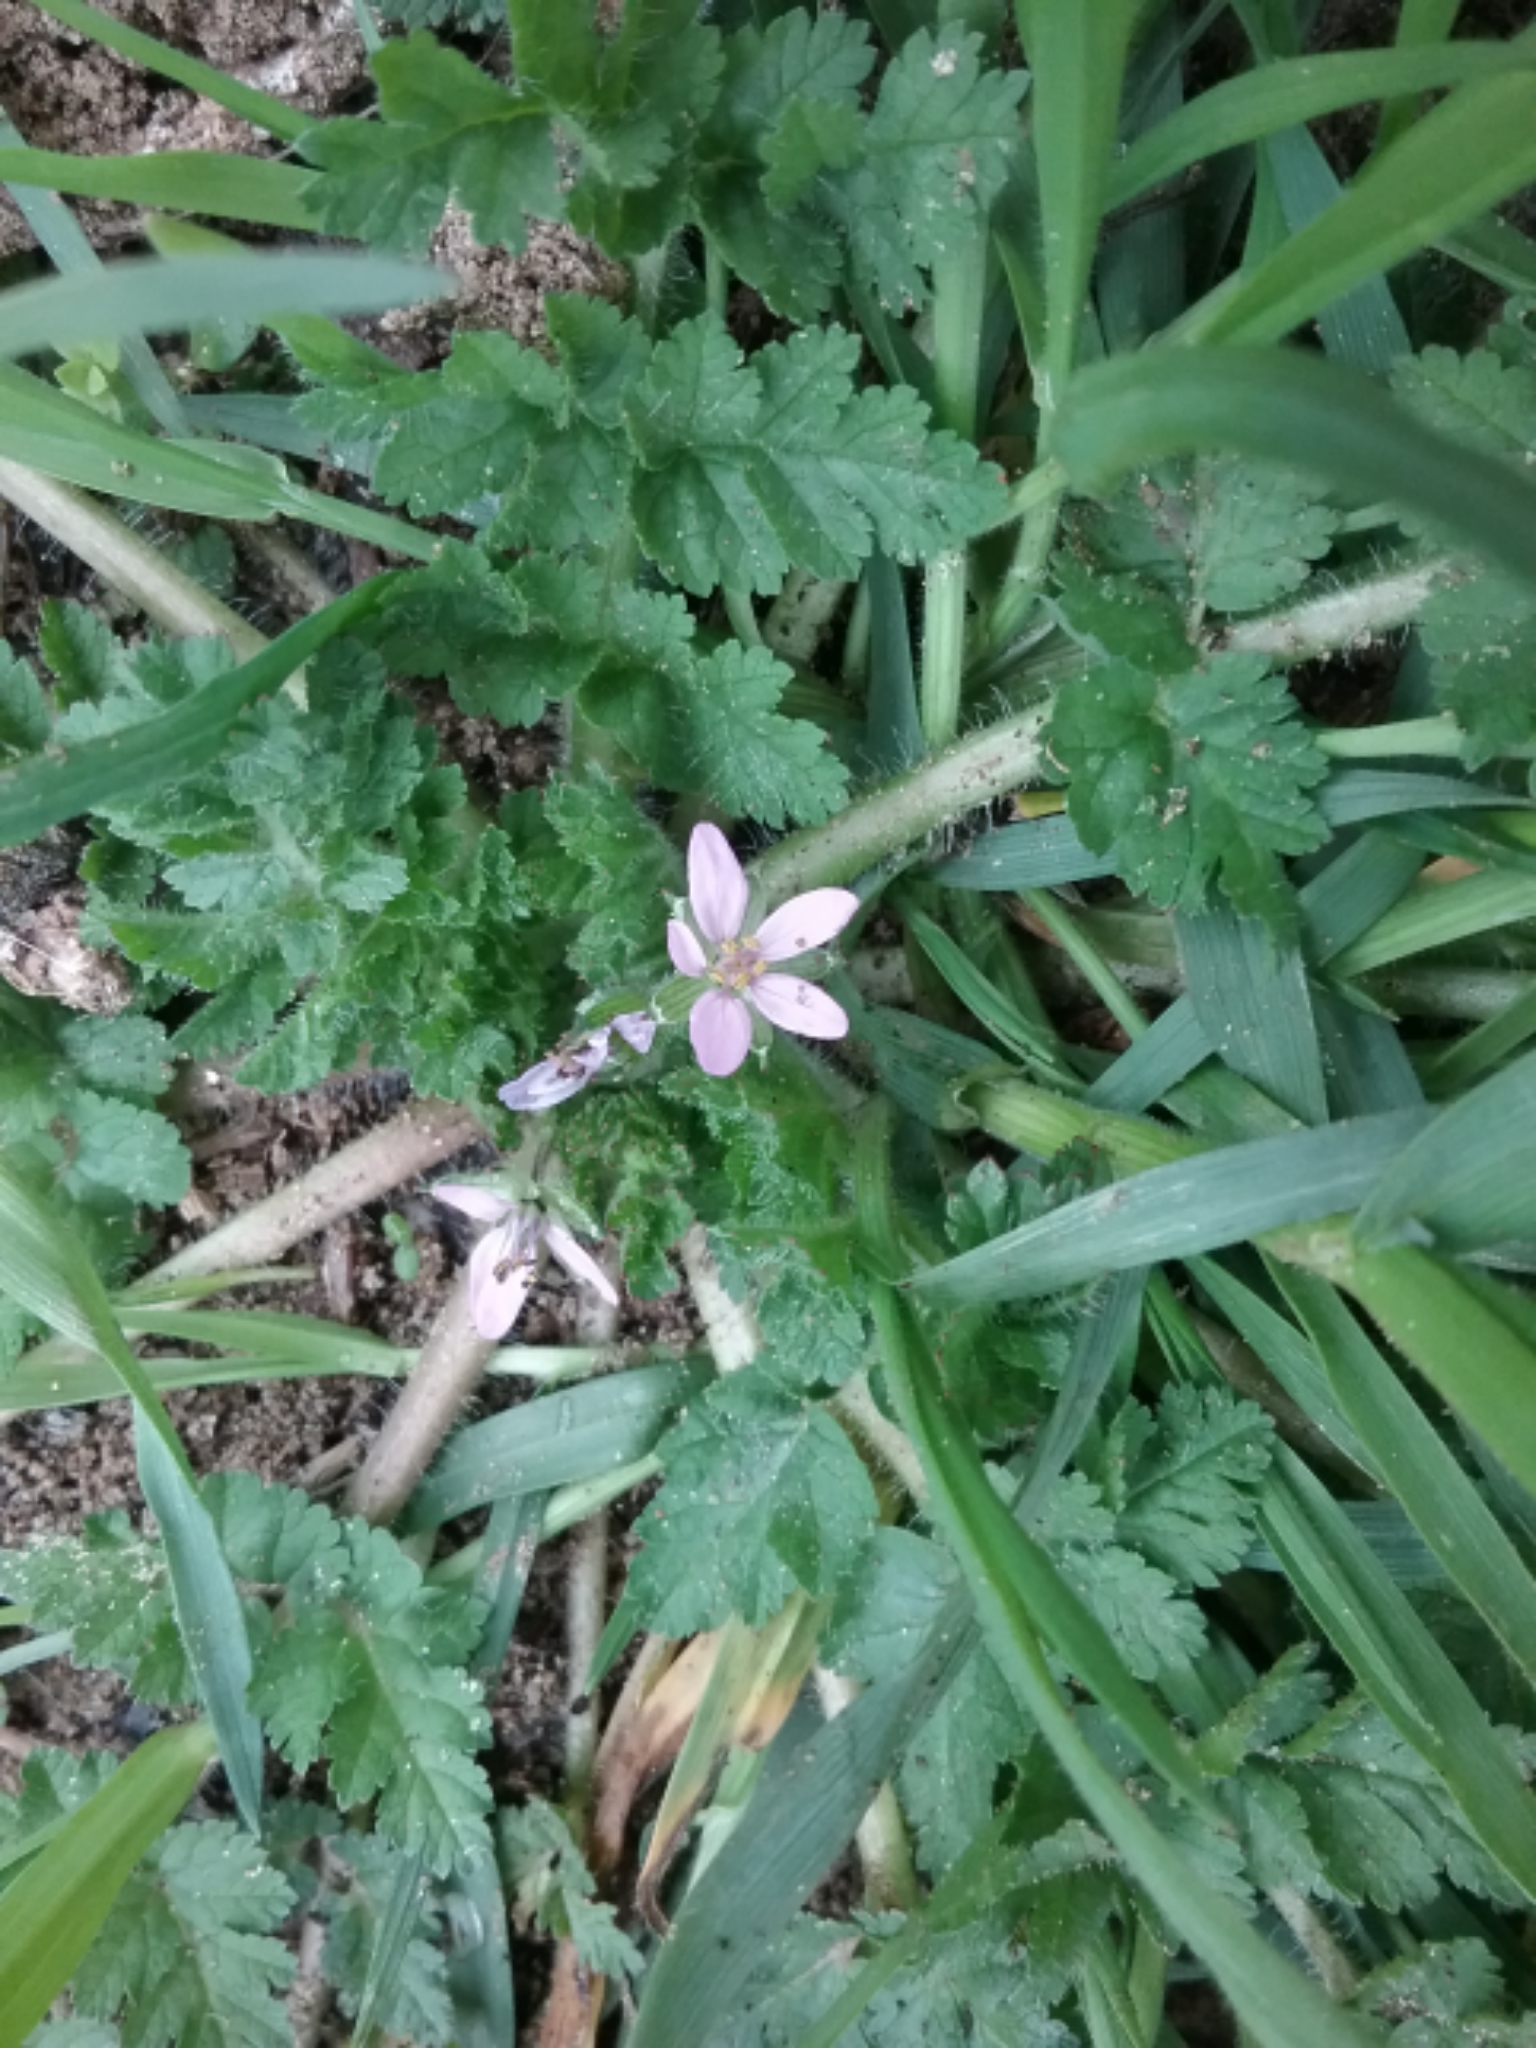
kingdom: Plantae
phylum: Tracheophyta
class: Magnoliopsida
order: Geraniales
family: Geraniaceae
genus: Erodium
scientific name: Erodium moschatum
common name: Musk stork's-bill
